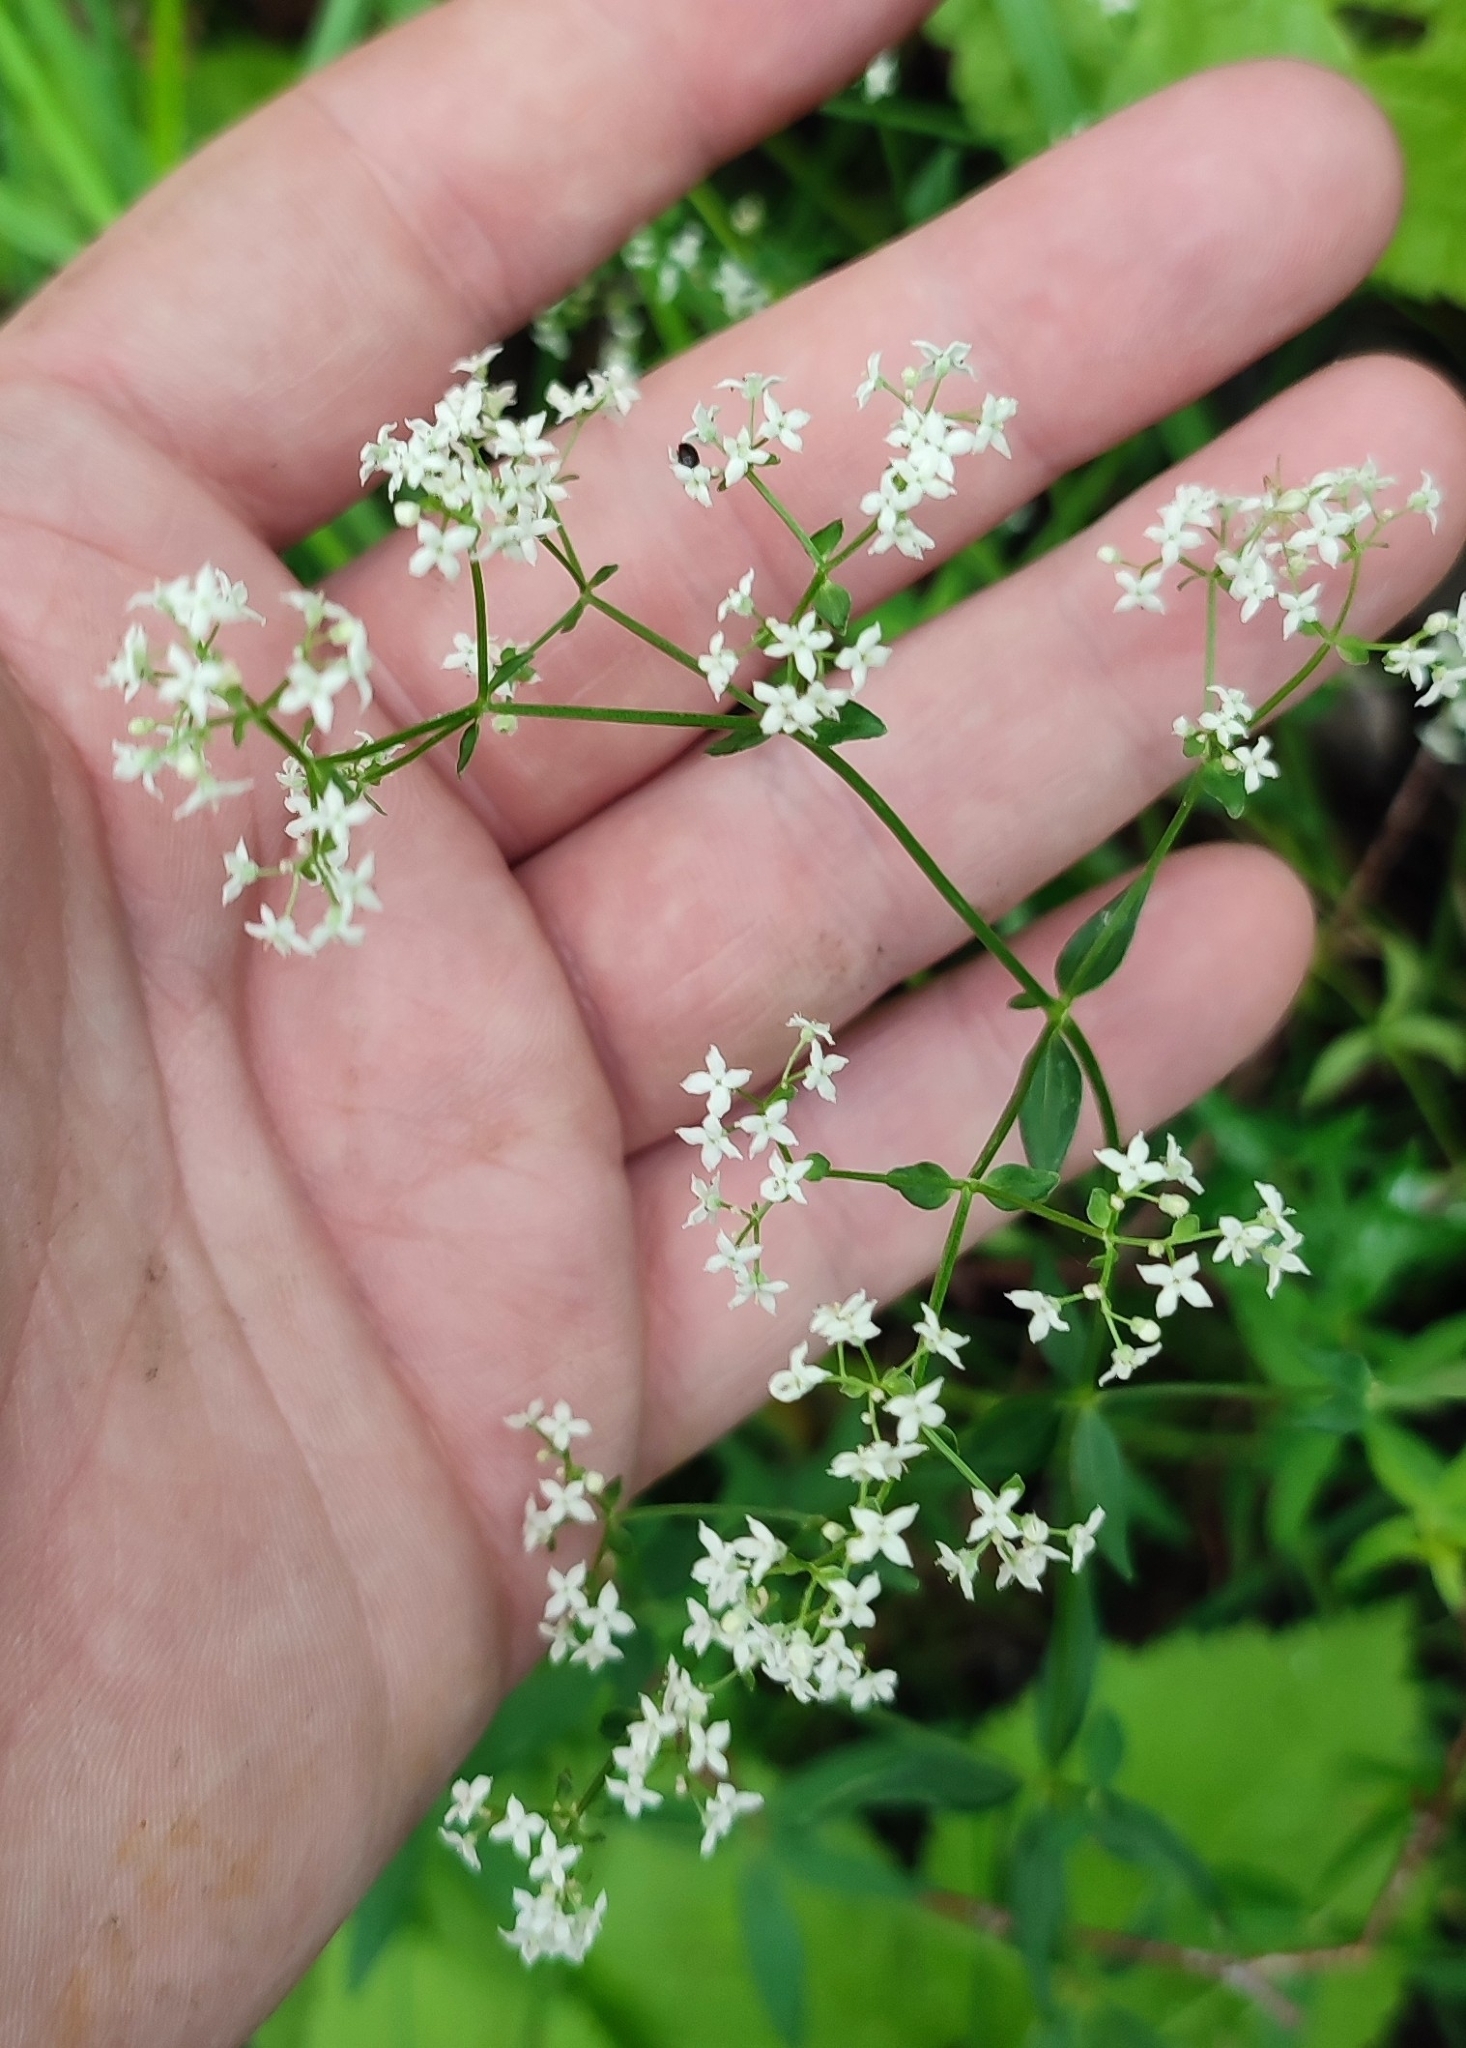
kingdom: Plantae
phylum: Tracheophyta
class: Magnoliopsida
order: Gentianales
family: Rubiaceae
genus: Galium
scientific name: Galium boreale
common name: Northern bedstraw
